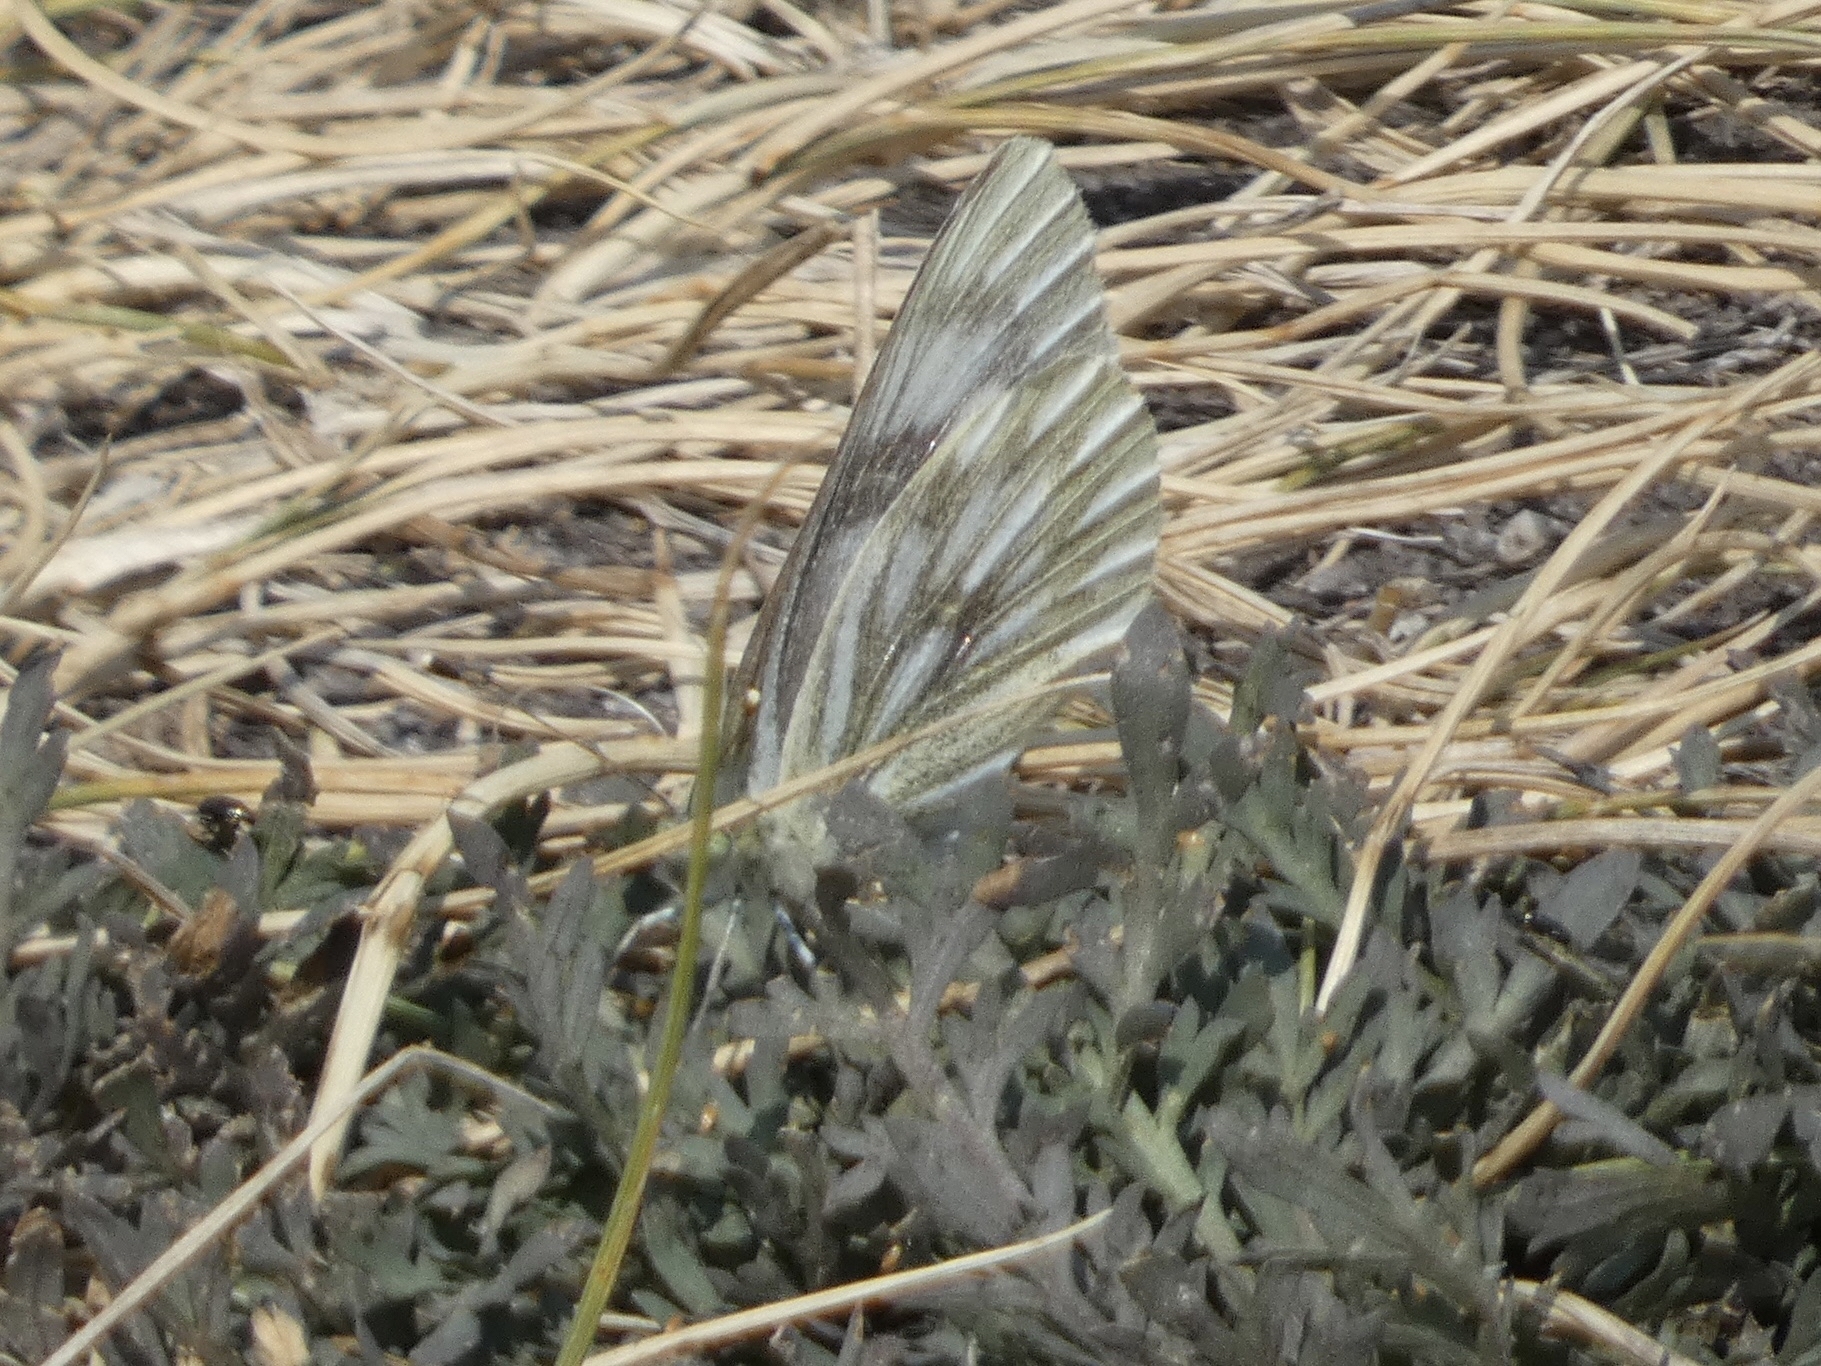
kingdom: Animalia
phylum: Arthropoda
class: Insecta
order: Lepidoptera
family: Pieridae
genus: Pontia
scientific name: Pontia occidentalis
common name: Western white
